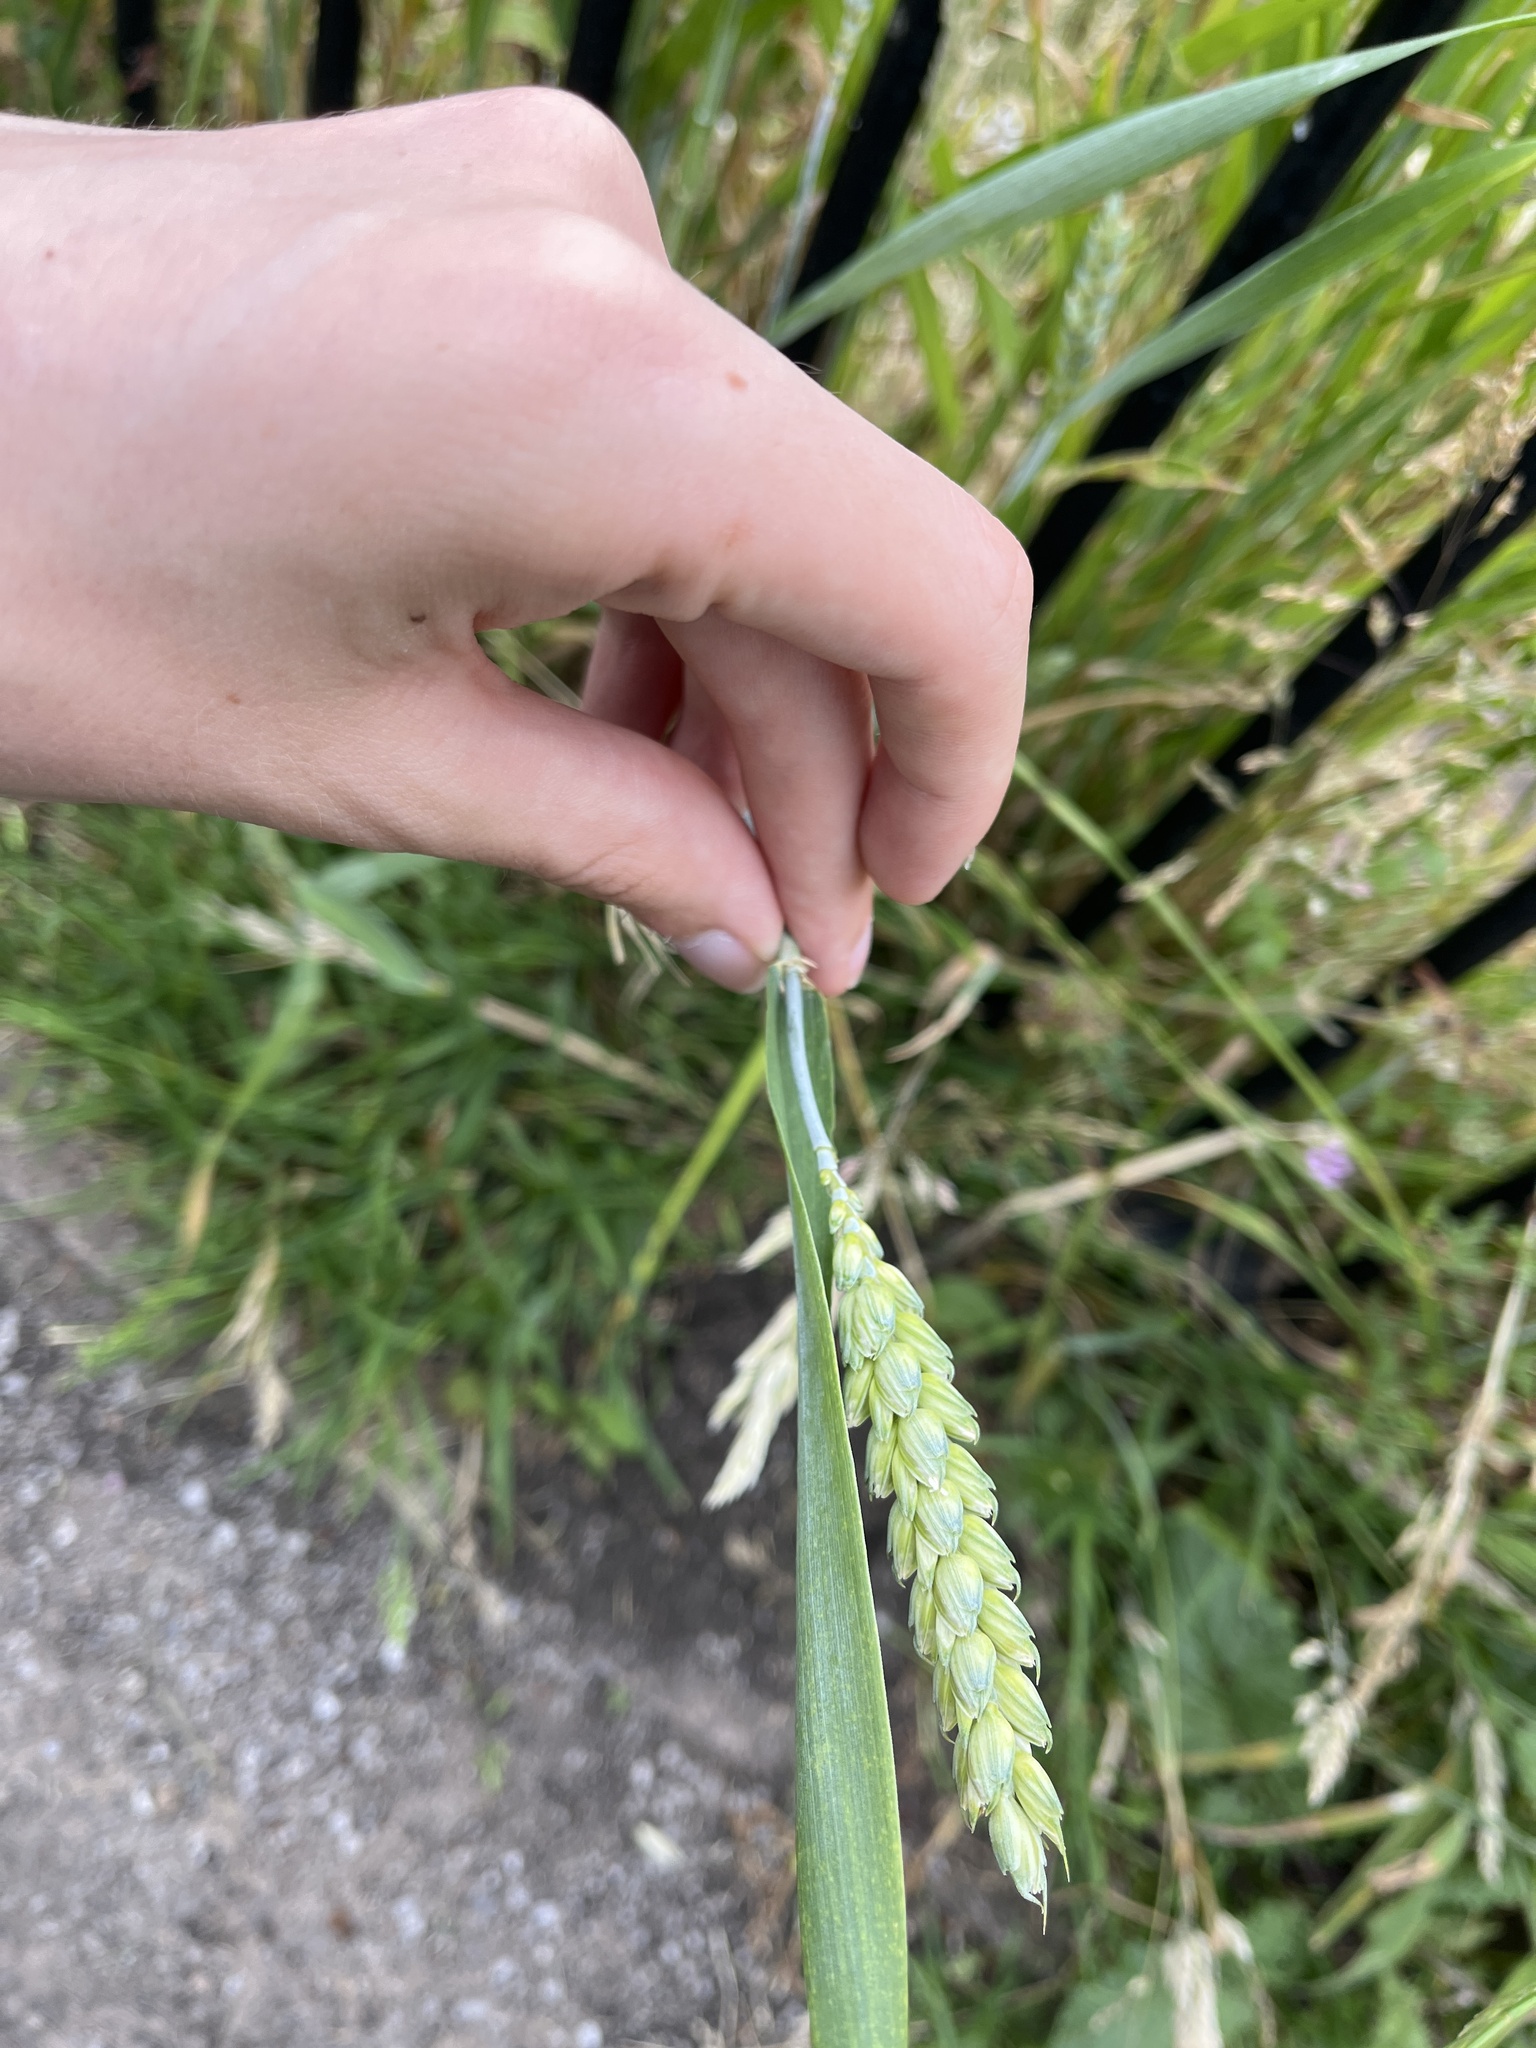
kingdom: Plantae
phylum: Tracheophyta
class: Liliopsida
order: Poales
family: Poaceae
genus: Triticum
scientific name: Triticum aestivum
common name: Common wheat
